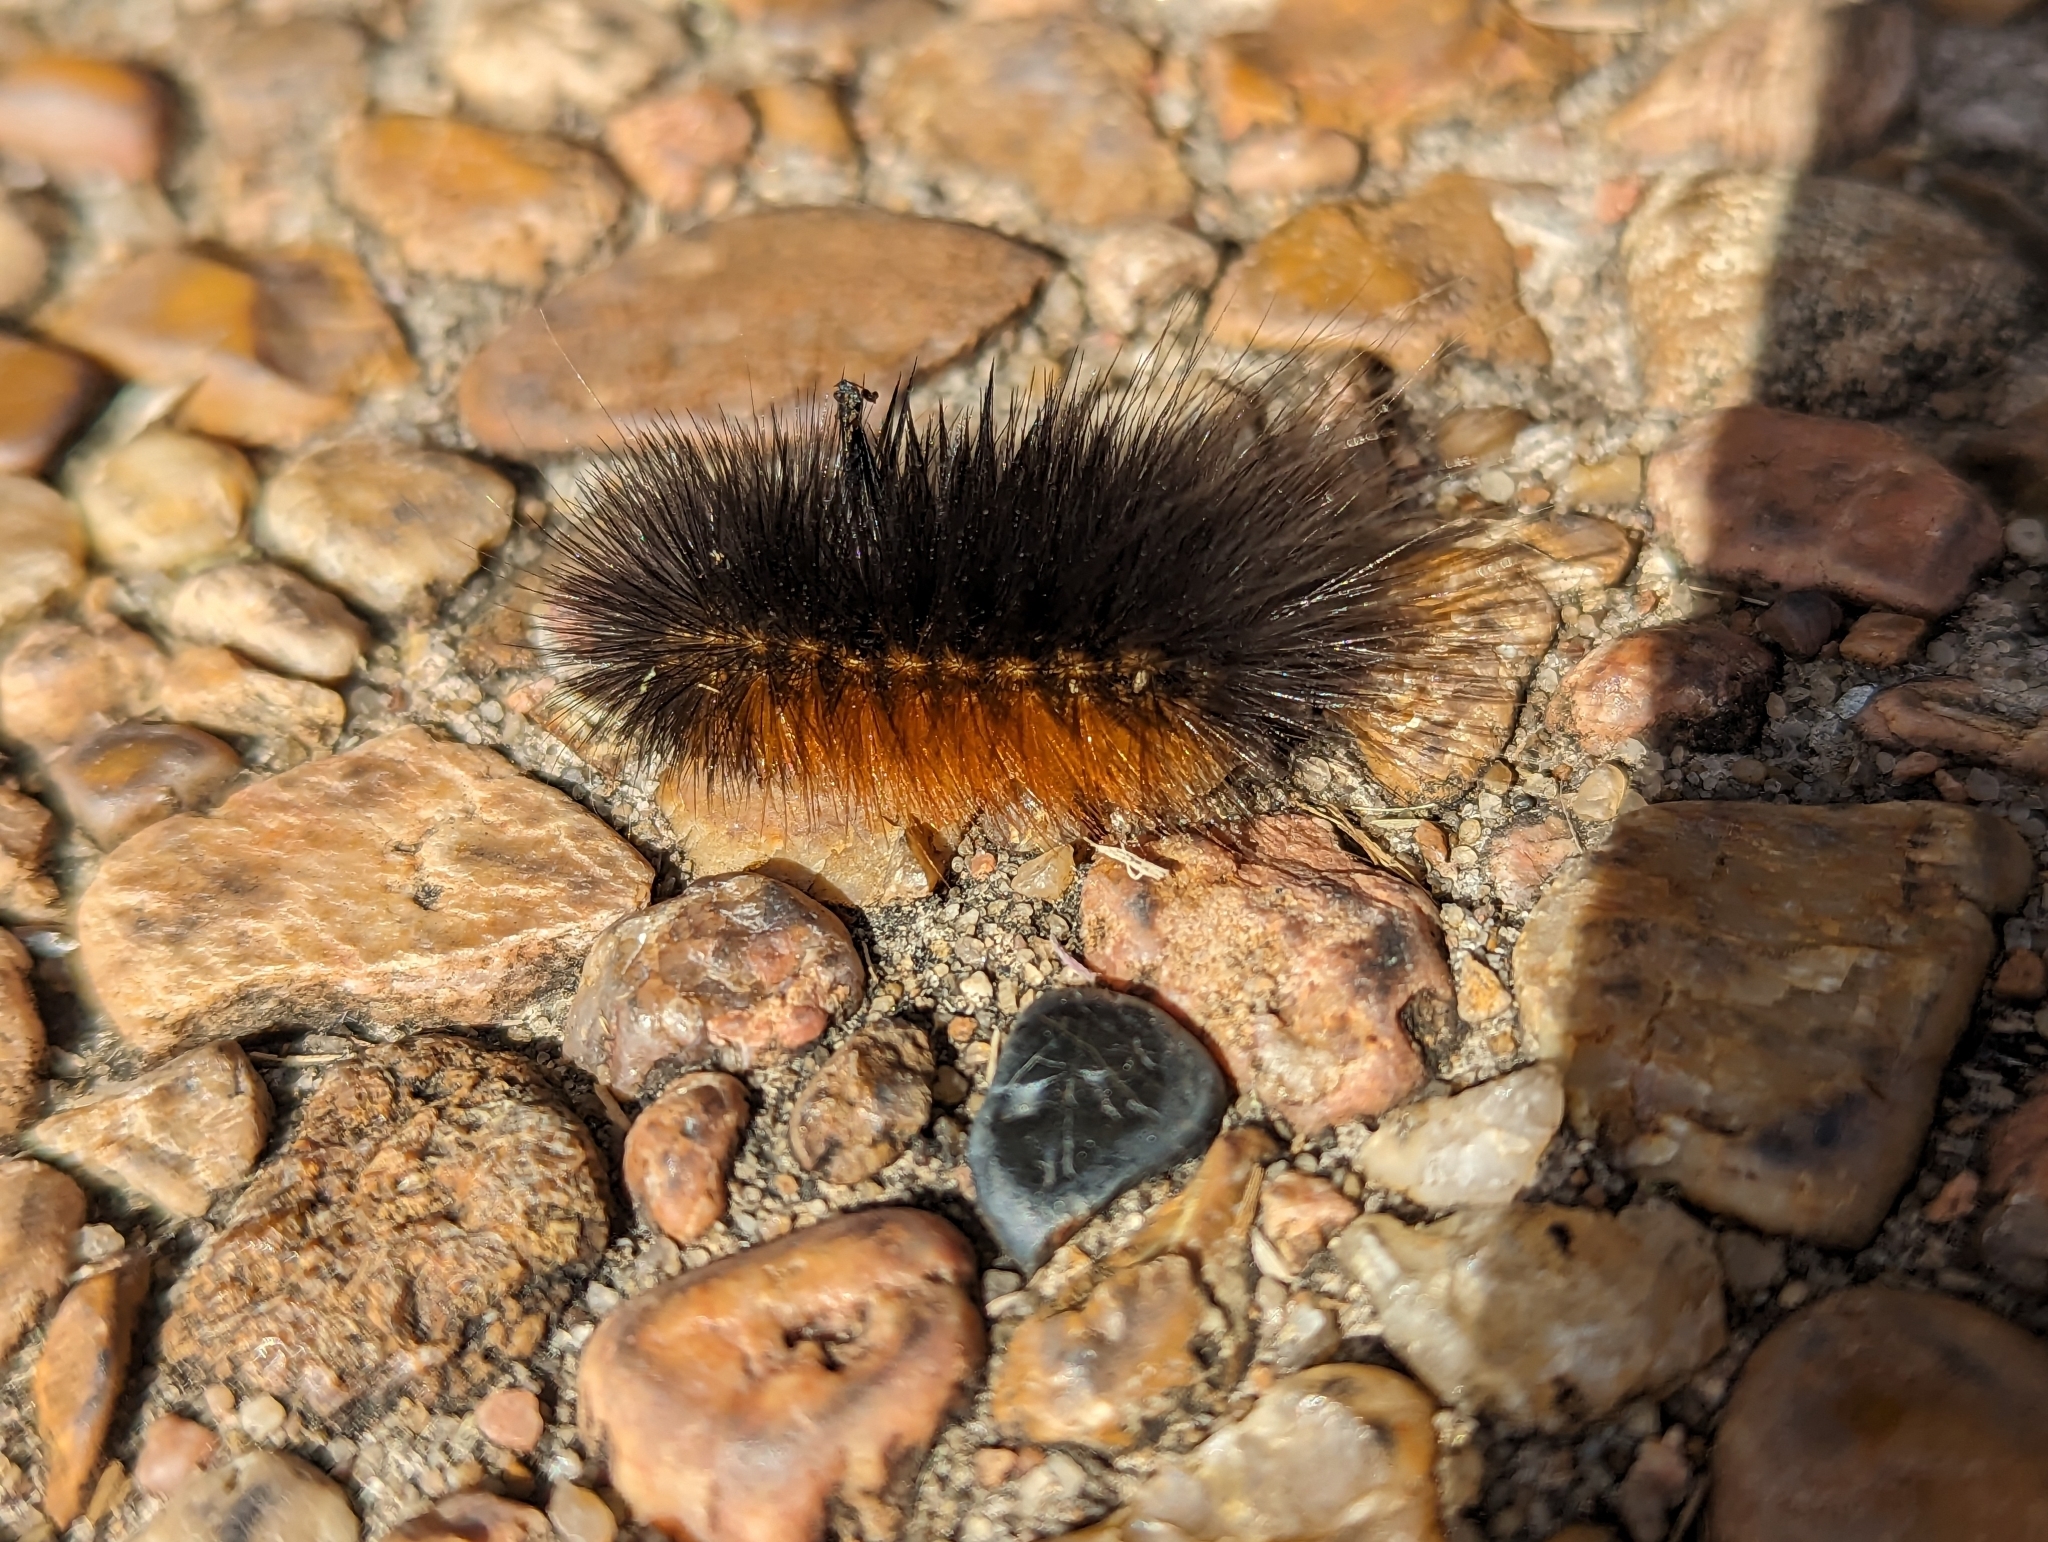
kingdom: Animalia
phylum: Arthropoda
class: Insecta
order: Lepidoptera
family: Erebidae
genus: Estigmene
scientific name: Estigmene acrea
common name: Salt marsh moth
